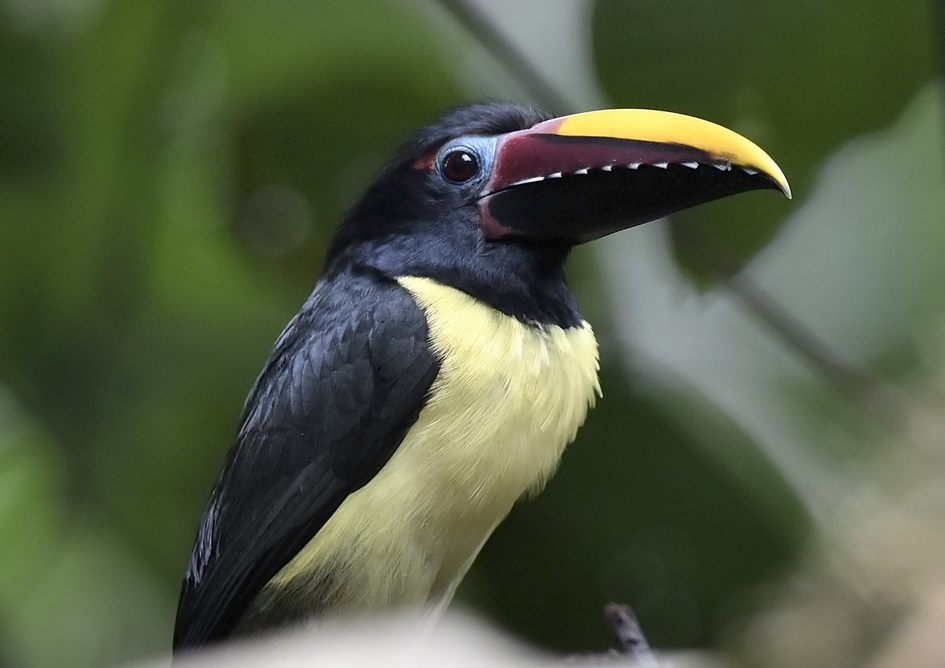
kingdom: Animalia
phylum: Chordata
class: Aves
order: Piciformes
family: Ramphastidae
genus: Pteroglossus
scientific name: Pteroglossus viridis
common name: Green aracari
